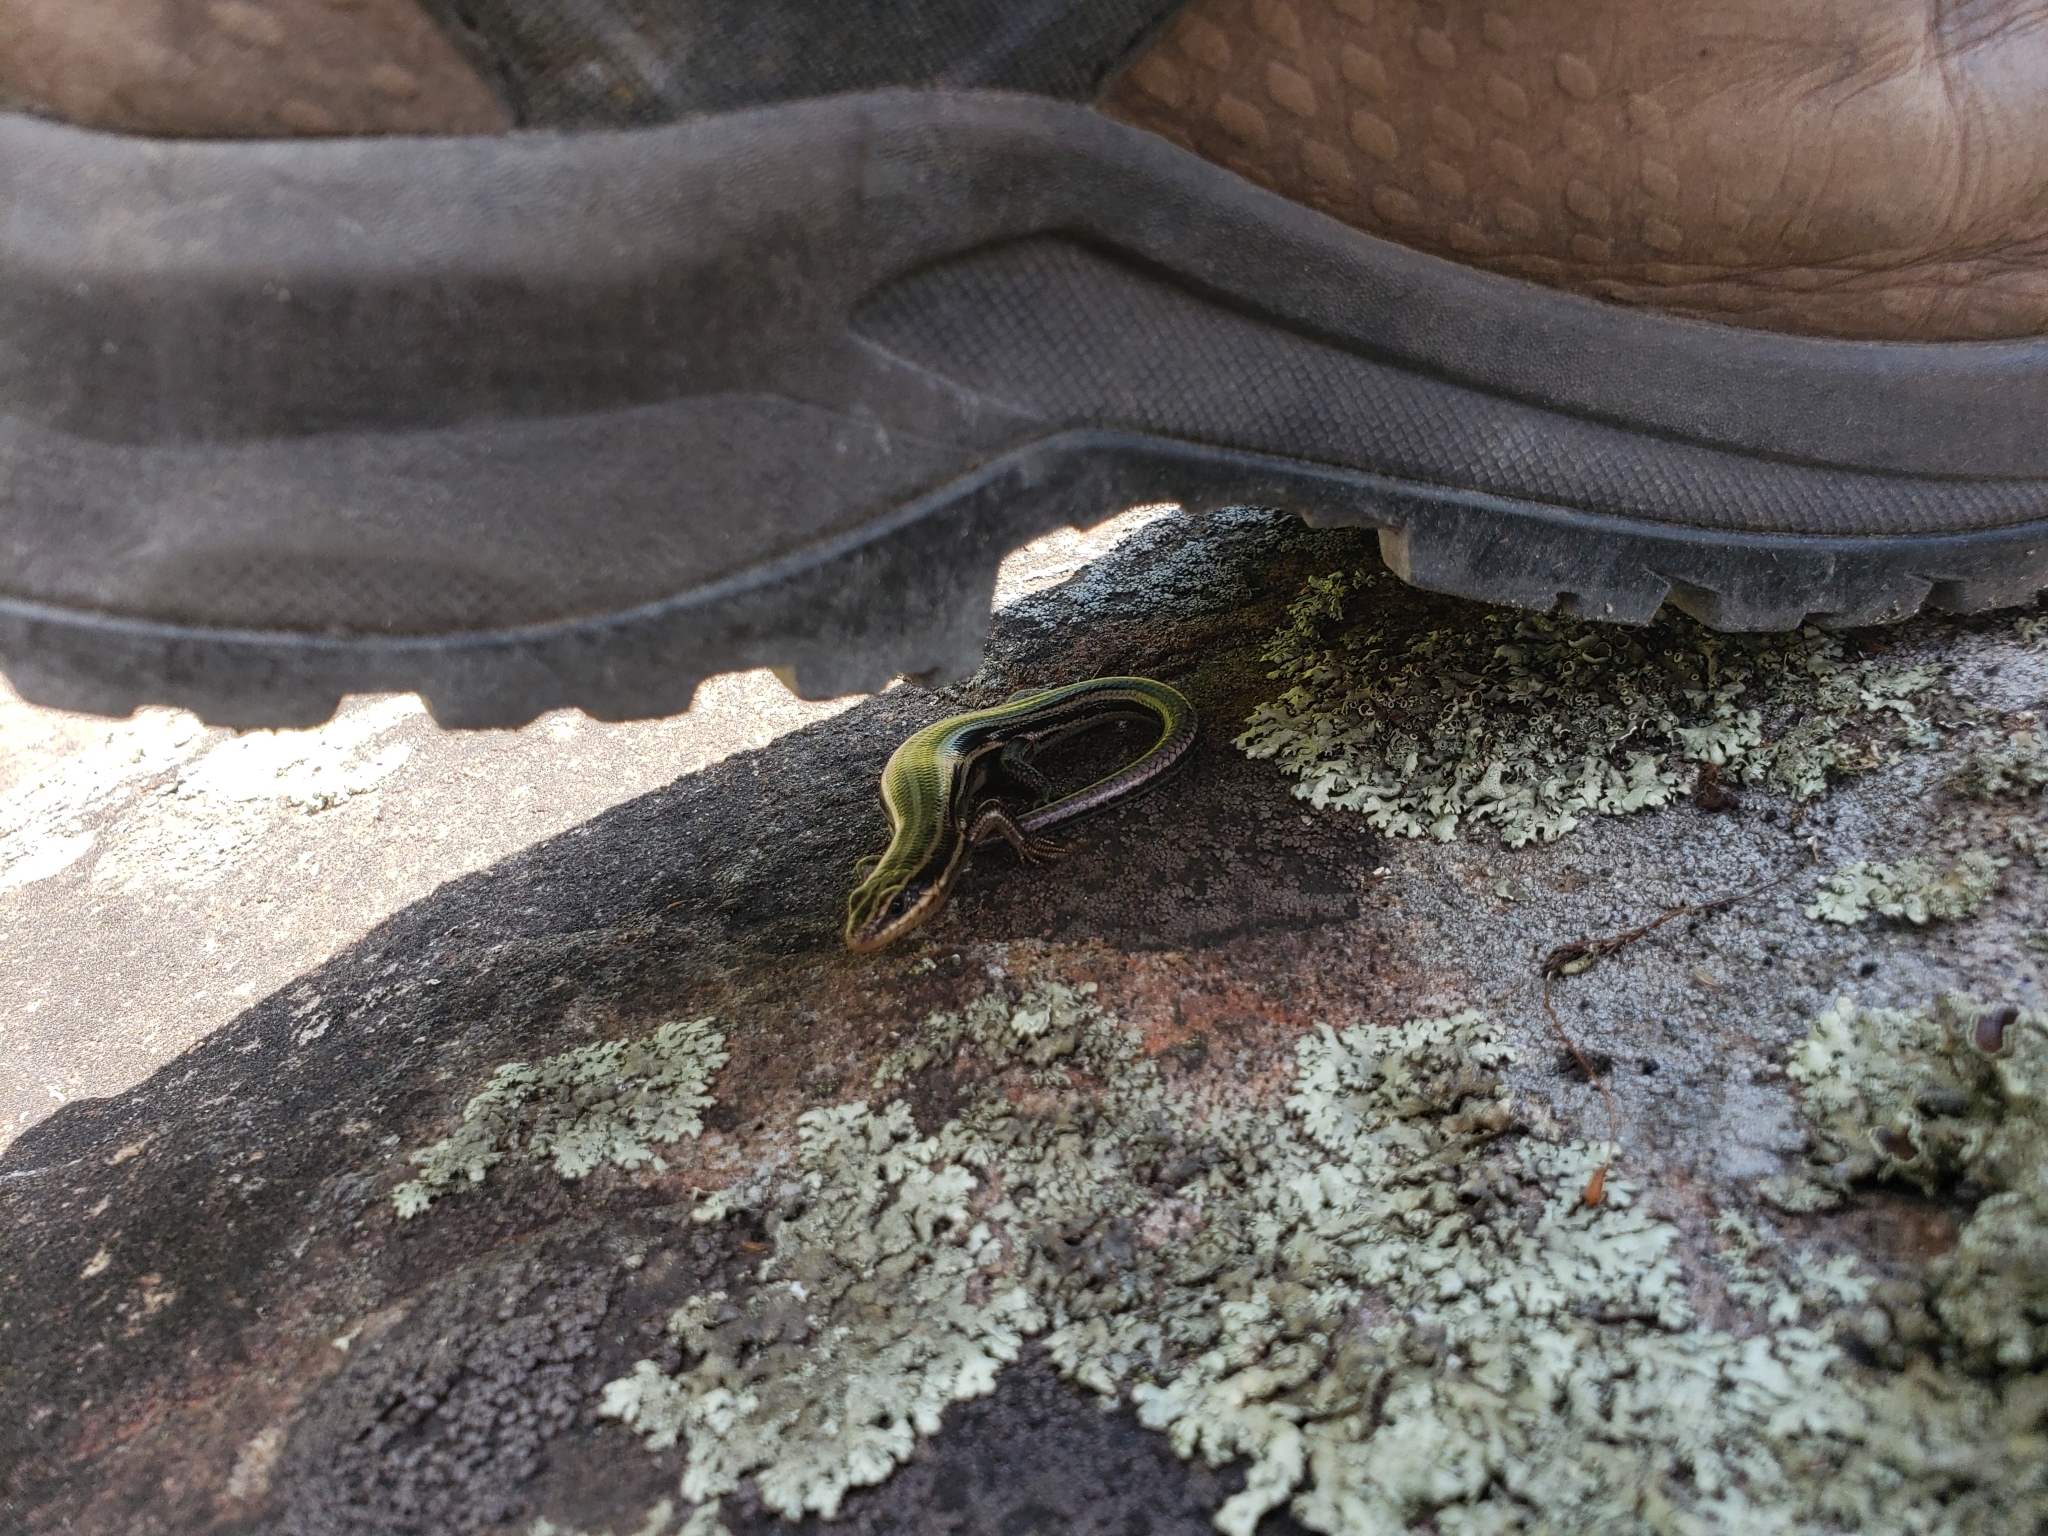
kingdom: Animalia
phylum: Chordata
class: Squamata
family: Scincidae
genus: Plestiodon
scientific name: Plestiodon fasciatus
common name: Five-lined skink
